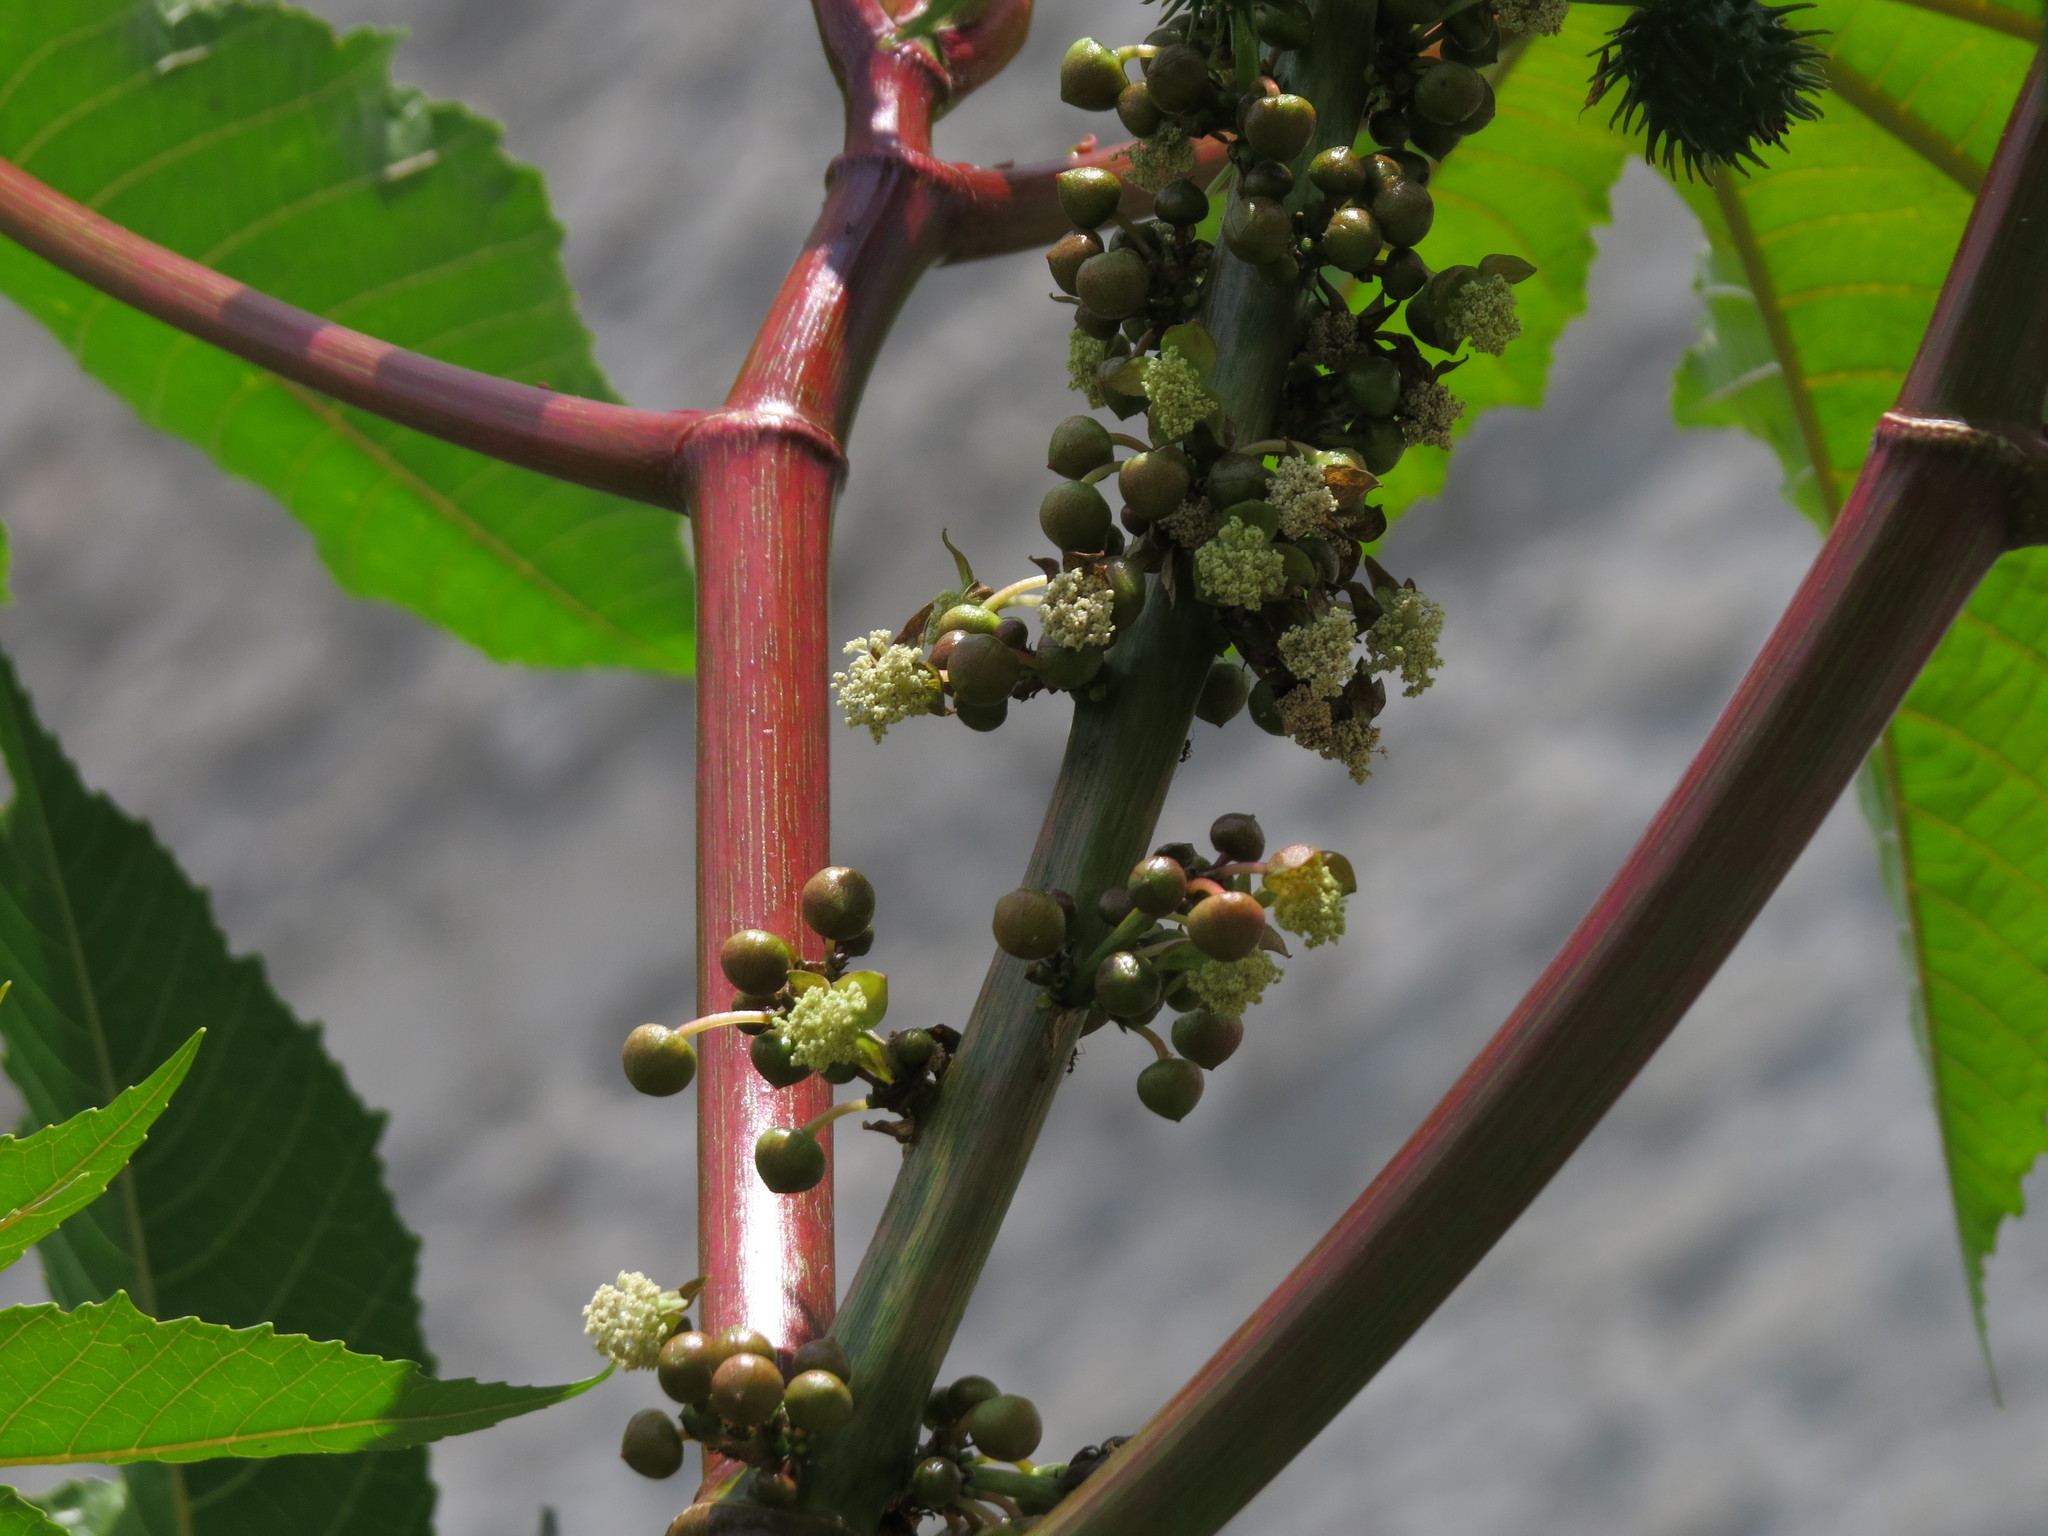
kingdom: Plantae
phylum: Tracheophyta
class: Magnoliopsida
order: Malpighiales
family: Euphorbiaceae
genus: Ricinus
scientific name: Ricinus communis
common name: Castor-oil-plant
